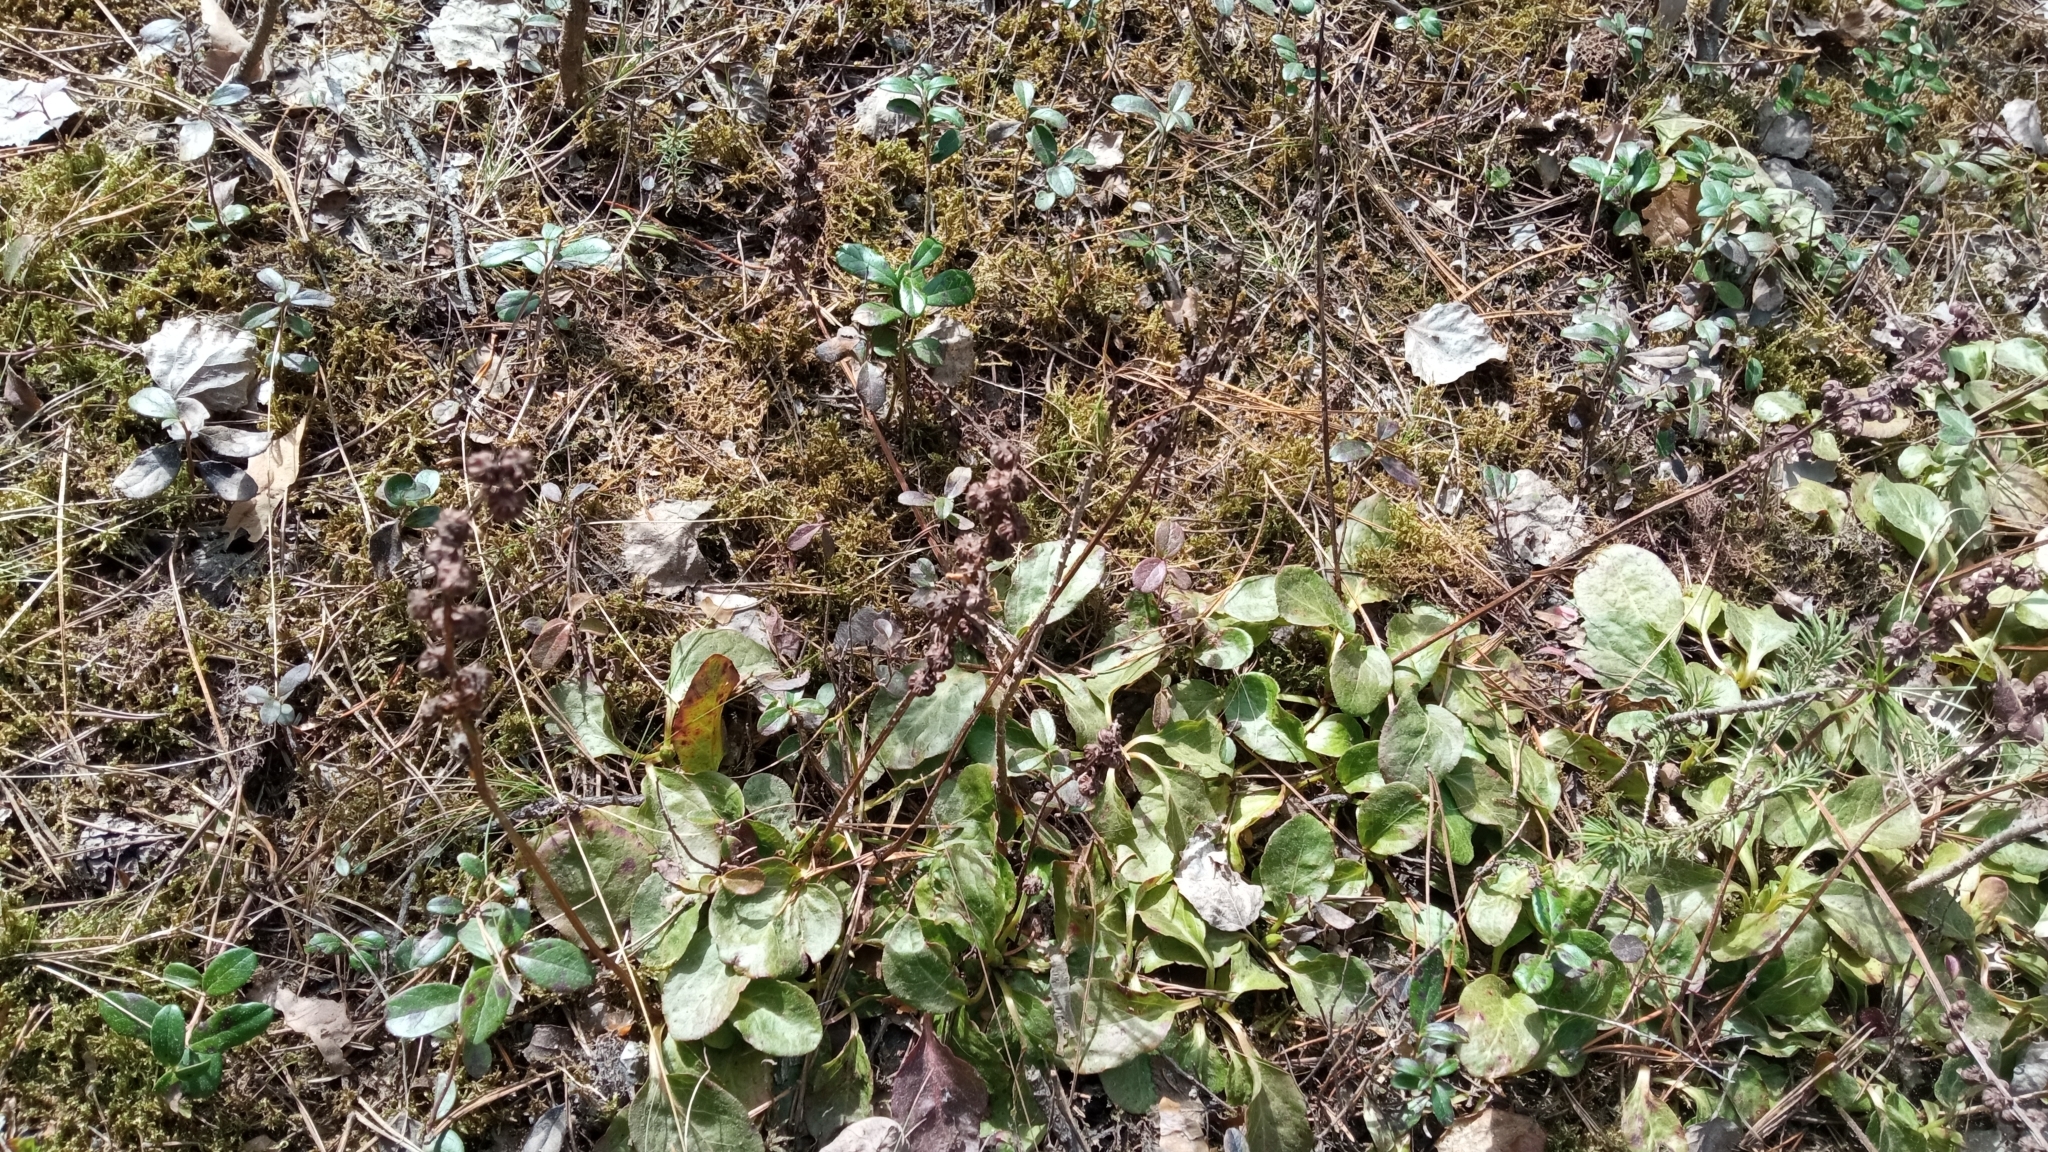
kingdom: Plantae
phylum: Tracheophyta
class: Magnoliopsida
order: Ericales
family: Ericaceae
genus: Pyrola
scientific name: Pyrola asarifolia
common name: Bog wintergreen
